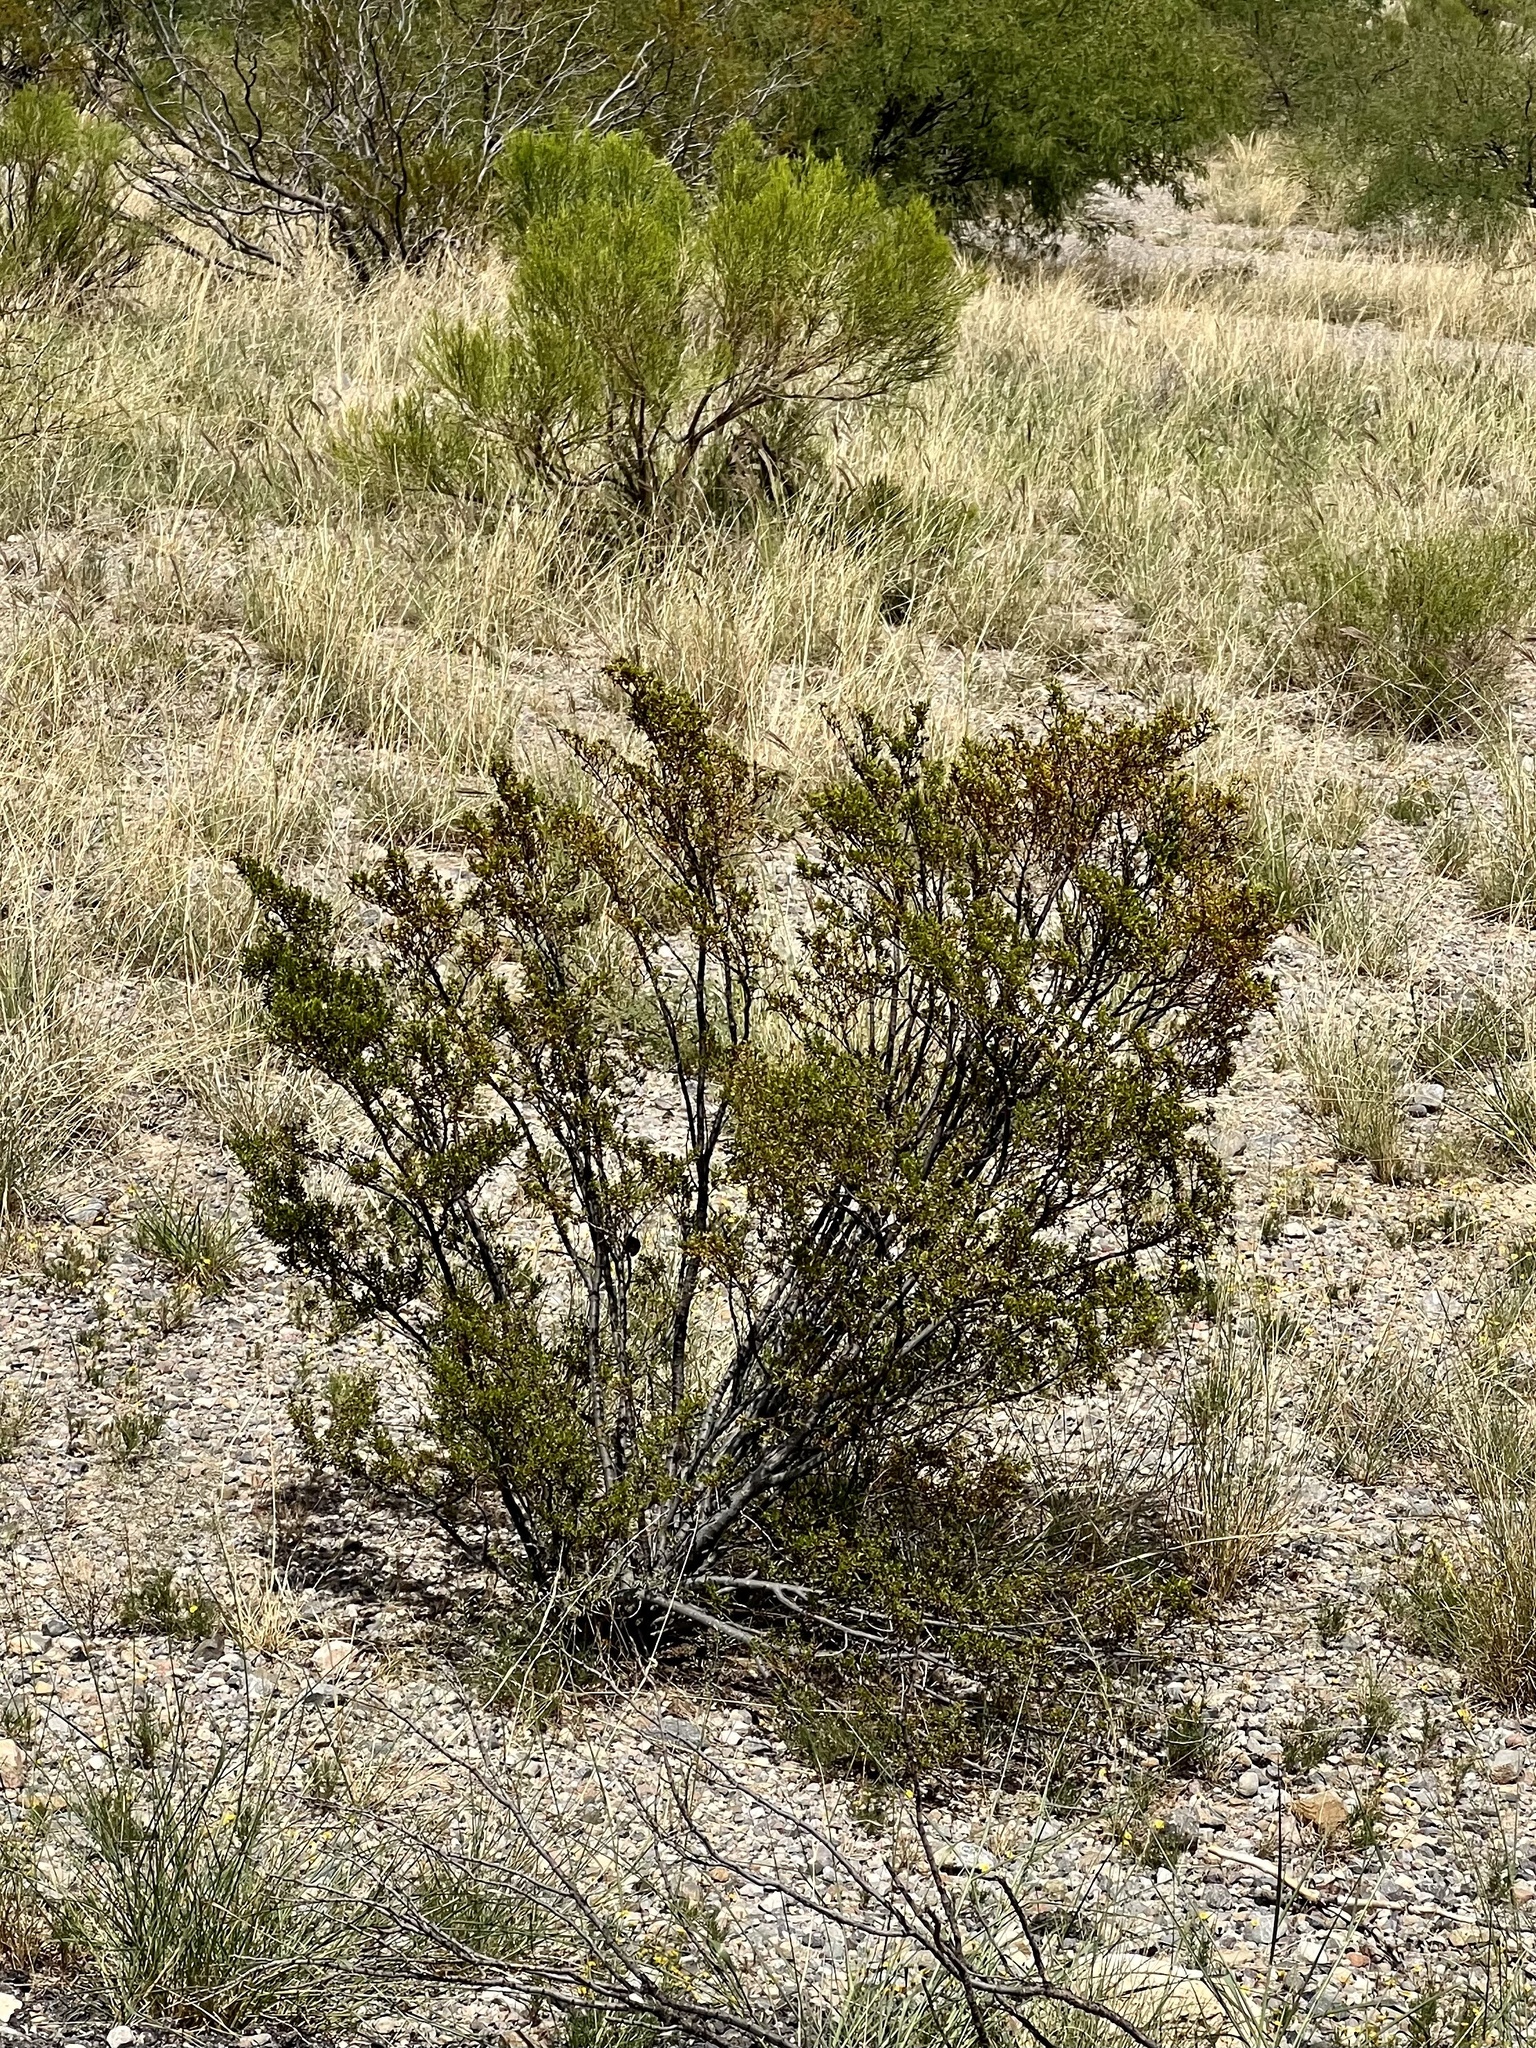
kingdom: Plantae
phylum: Tracheophyta
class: Magnoliopsida
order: Zygophyllales
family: Zygophyllaceae
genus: Larrea
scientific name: Larrea tridentata
